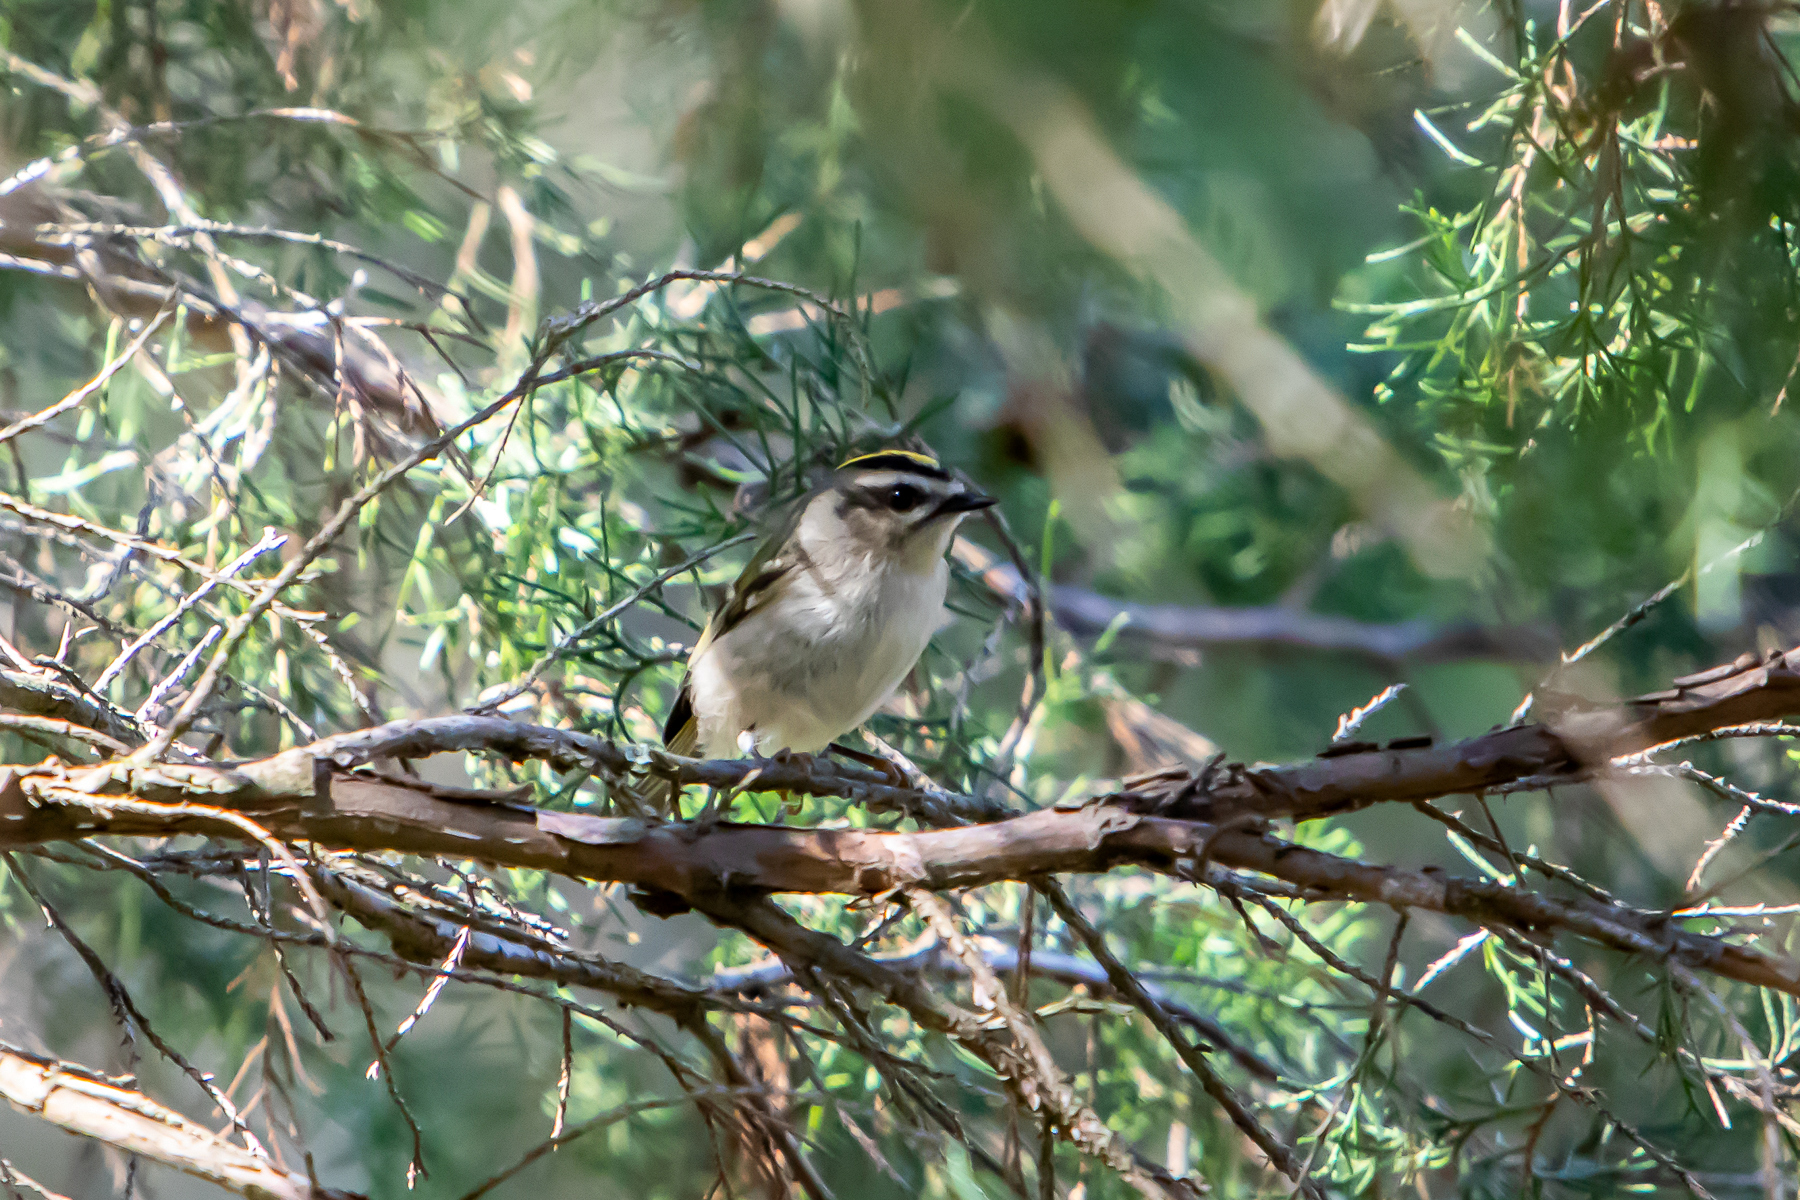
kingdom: Animalia
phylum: Chordata
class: Aves
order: Passeriformes
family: Regulidae
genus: Regulus
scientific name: Regulus satrapa
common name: Golden-crowned kinglet
